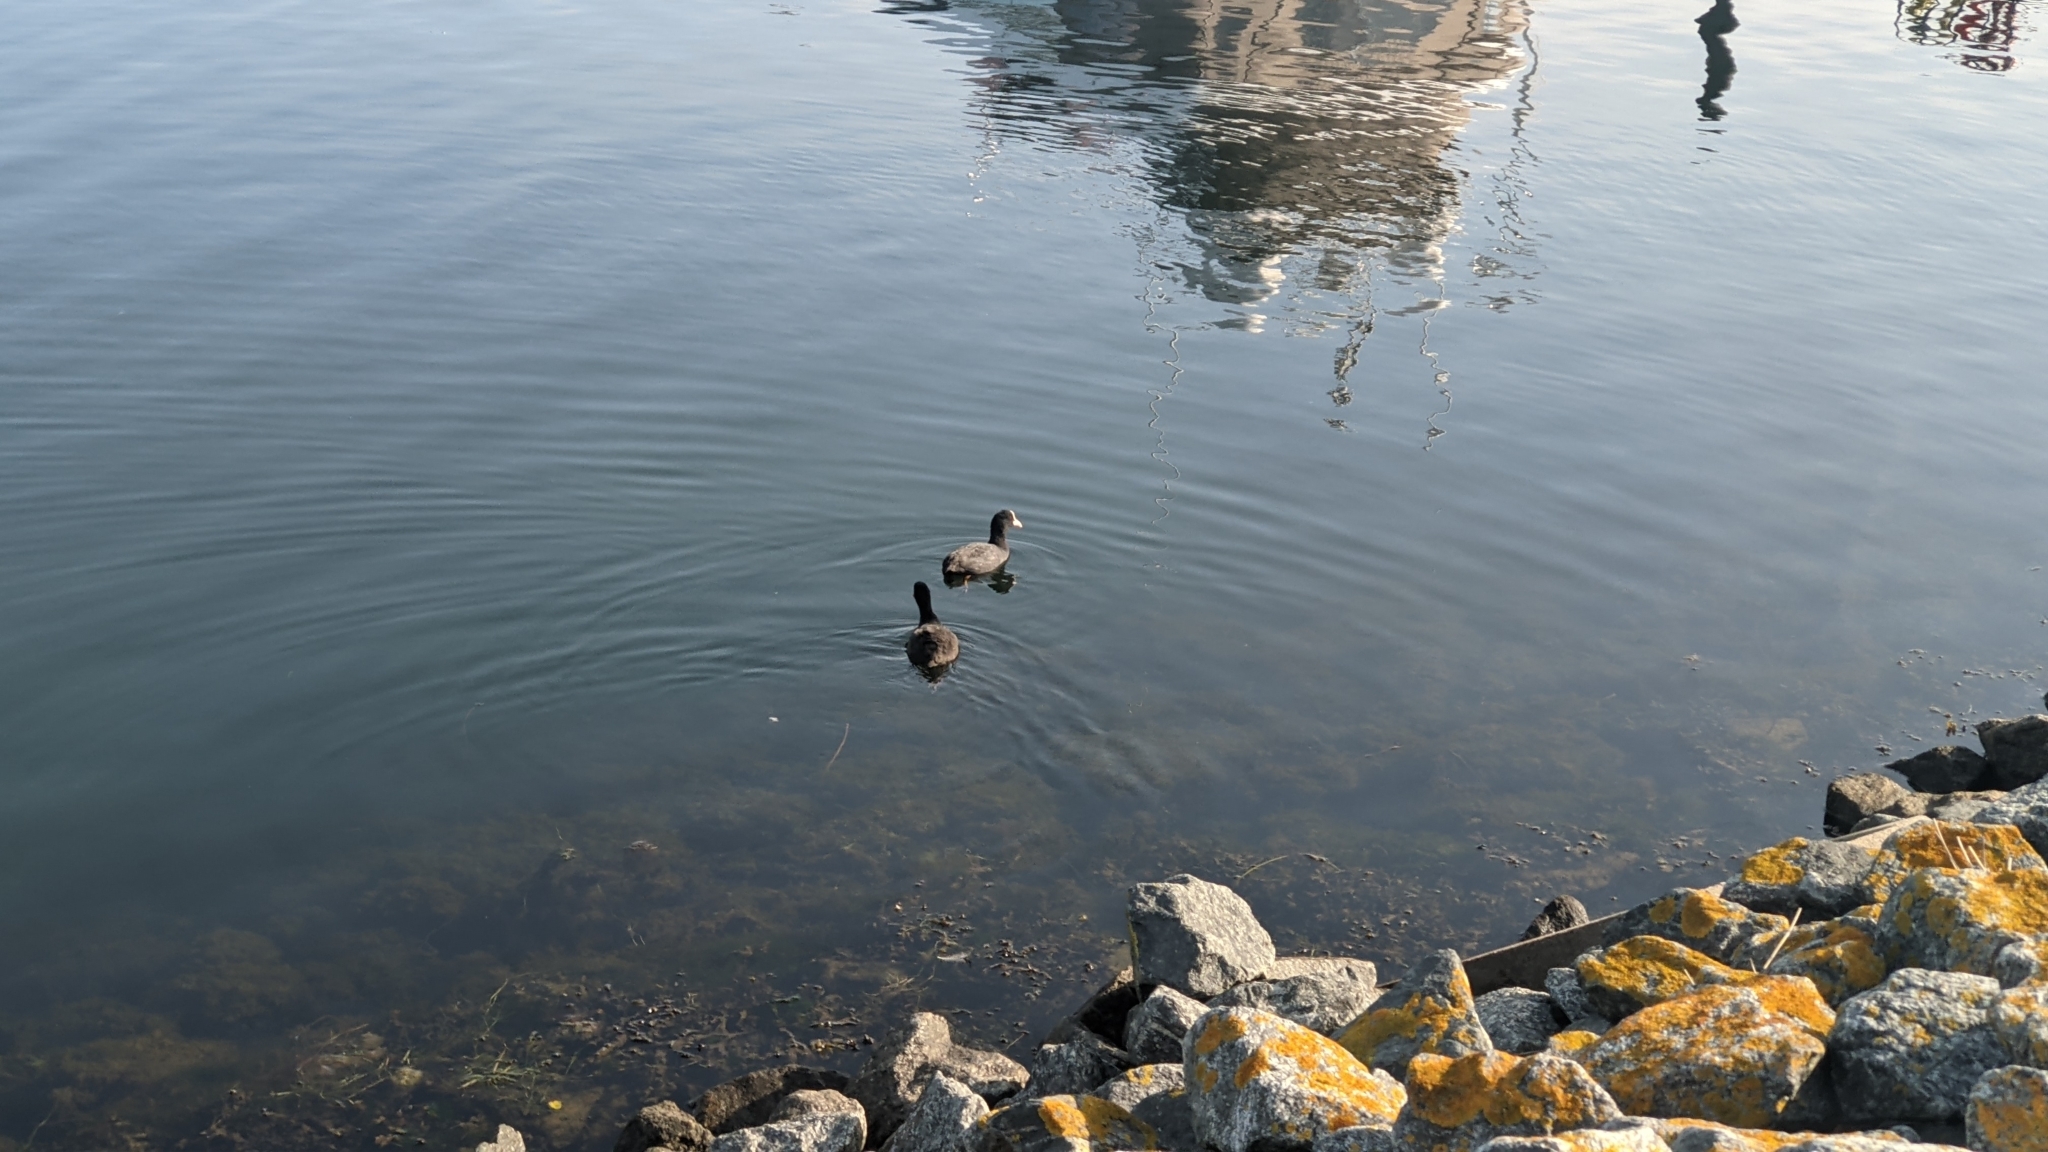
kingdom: Animalia
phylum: Chordata
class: Aves
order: Gruiformes
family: Rallidae
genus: Fulica
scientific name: Fulica atra
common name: Eurasian coot
